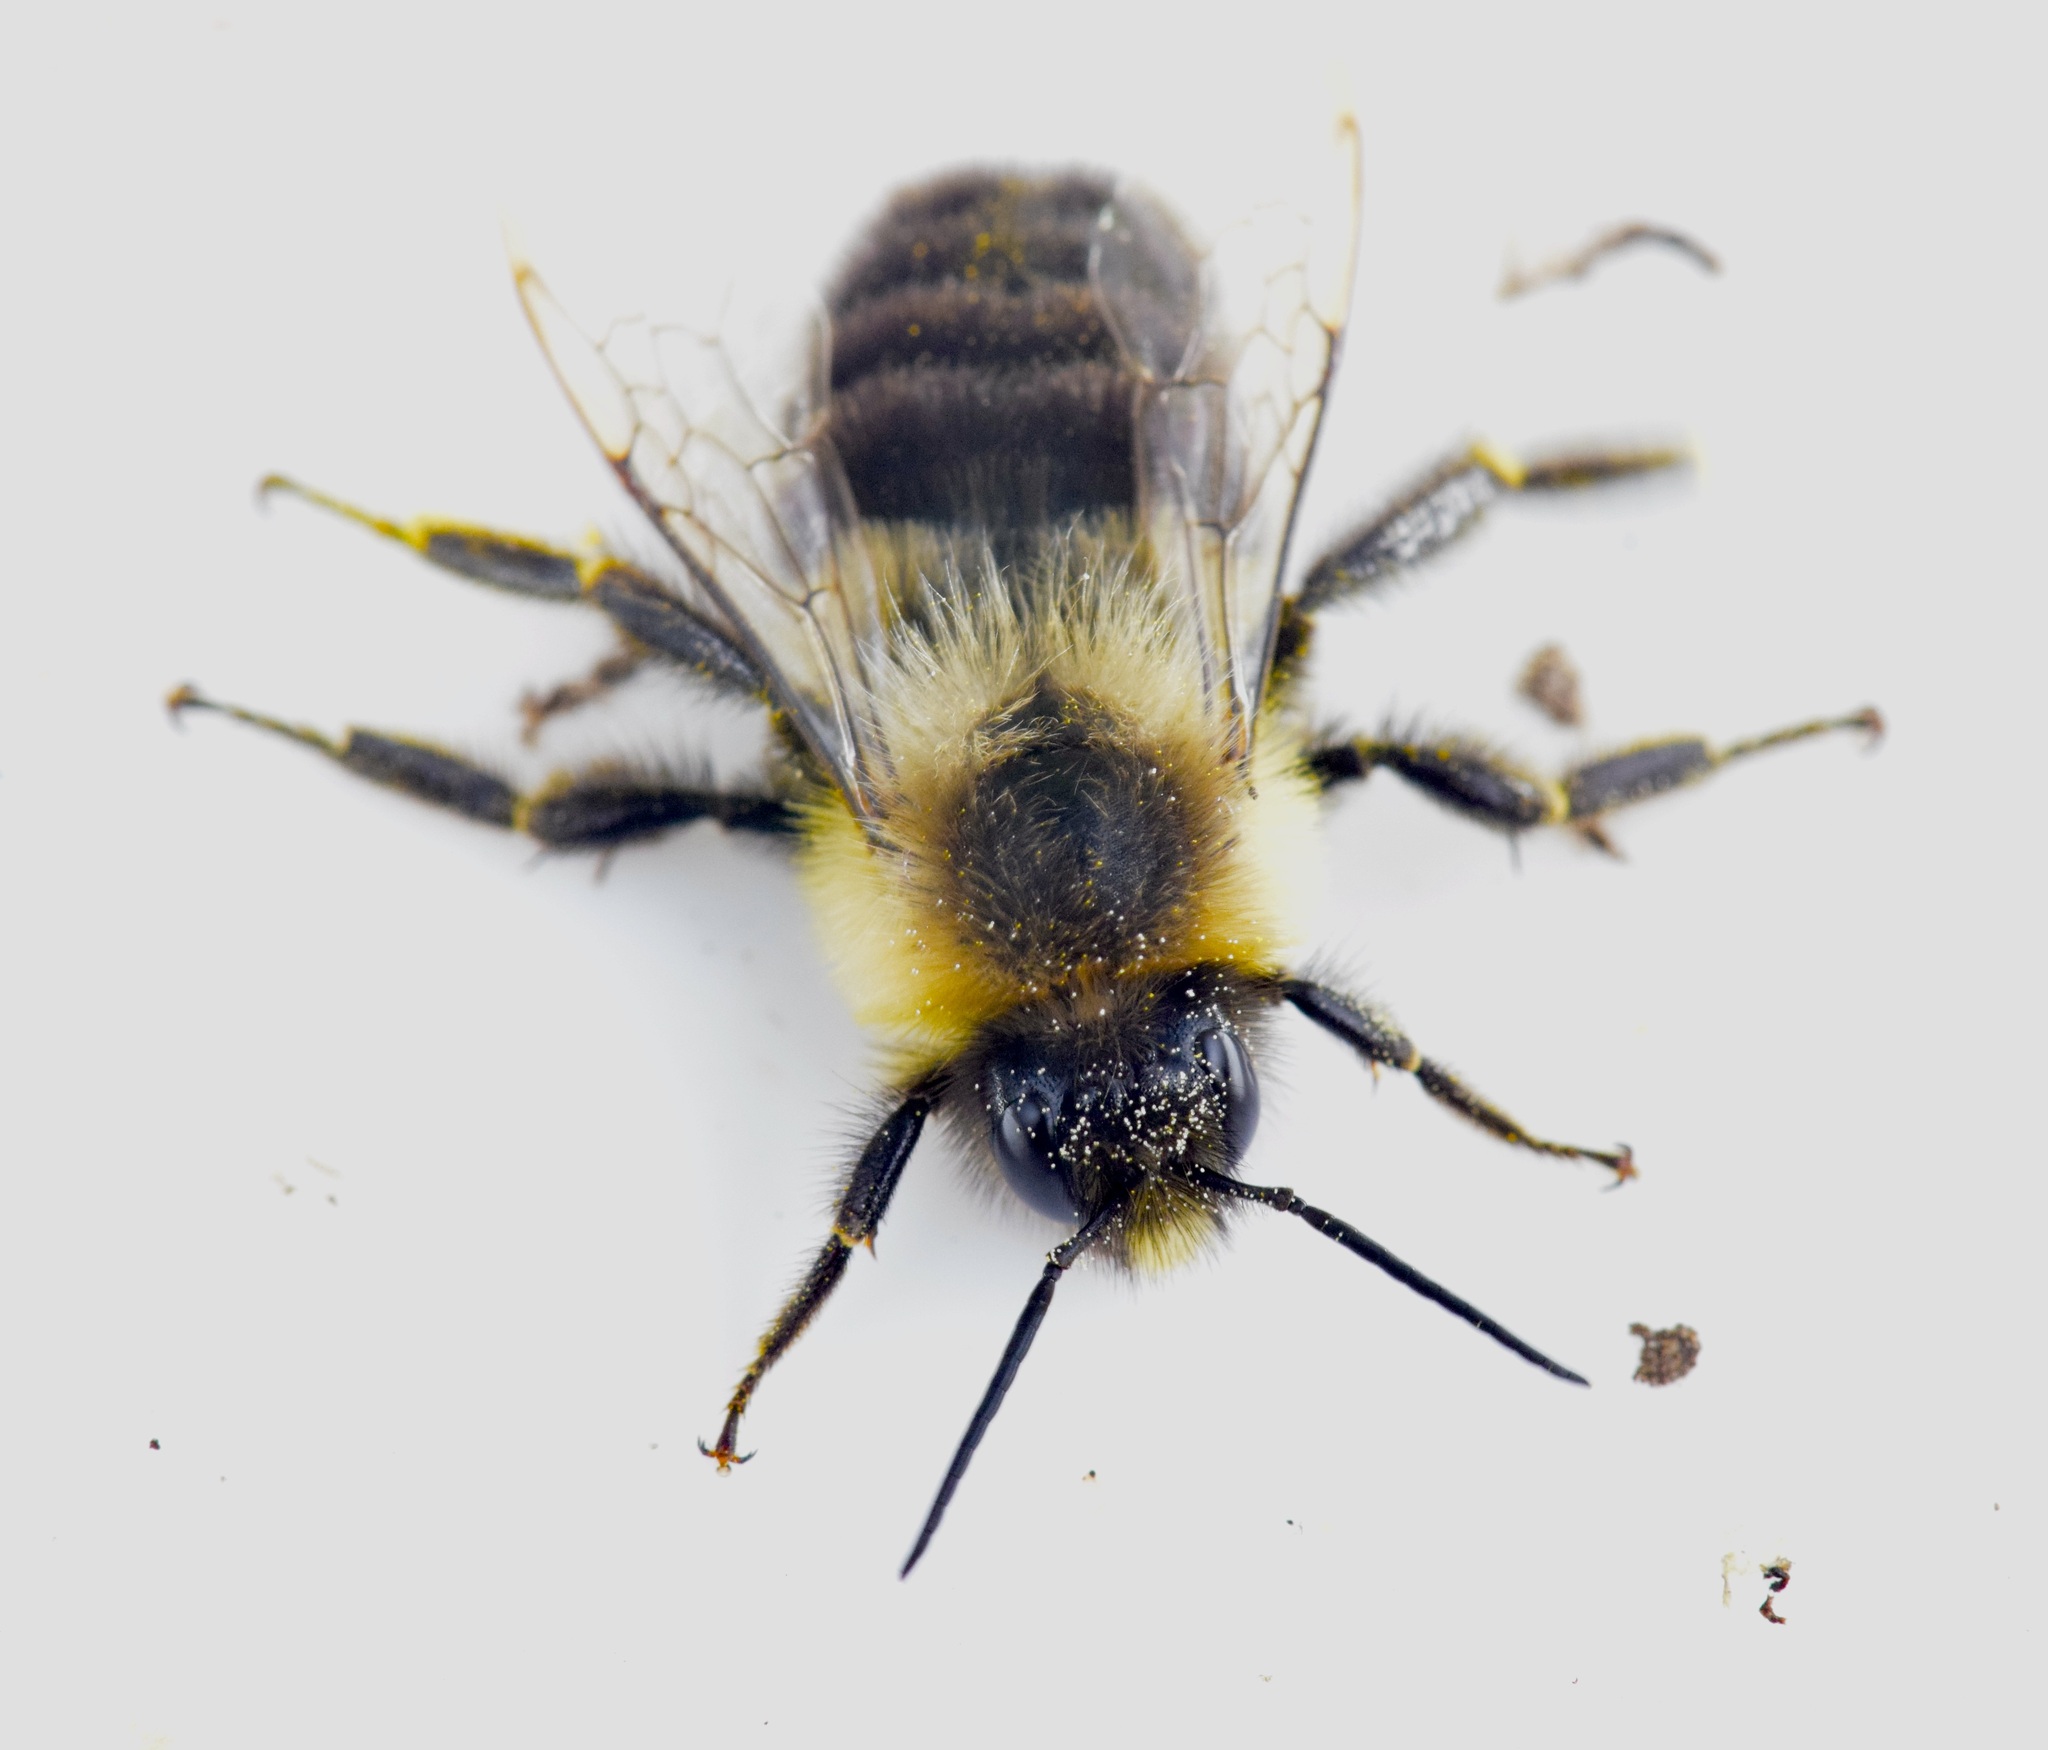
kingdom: Animalia
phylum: Arthropoda
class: Insecta
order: Hymenoptera
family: Apidae
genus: Bombus
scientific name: Bombus impatiens
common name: Common eastern bumble bee
